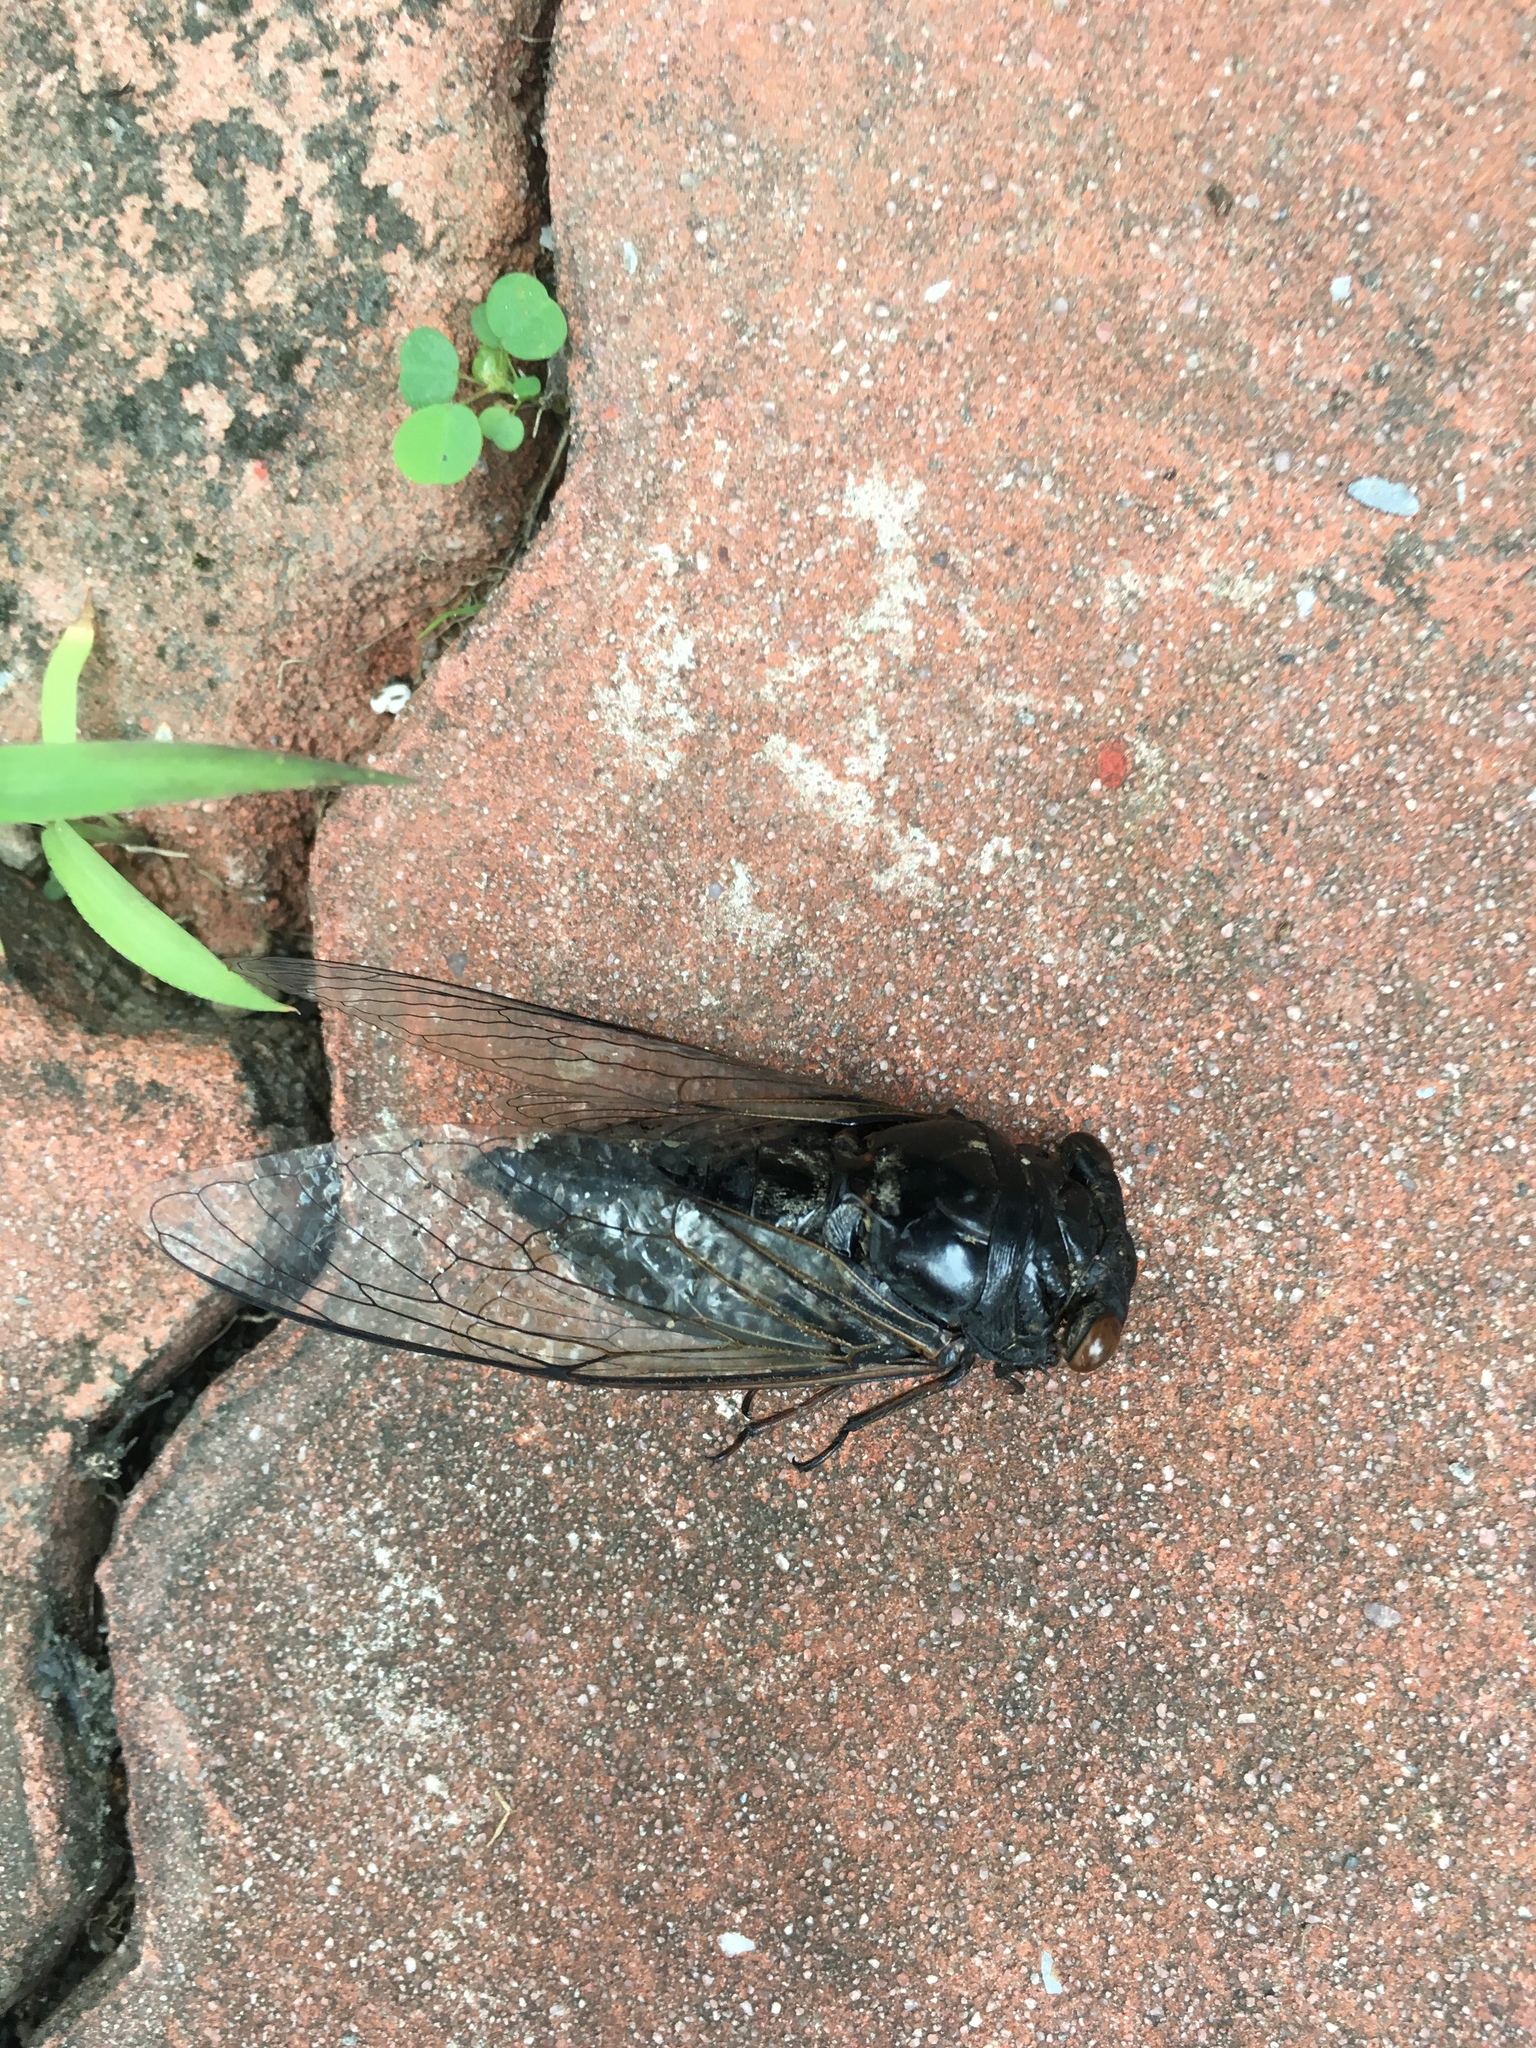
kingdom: Animalia
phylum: Arthropoda
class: Insecta
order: Hemiptera
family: Cicadidae
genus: Cryptotympana
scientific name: Cryptotympana takasagona
